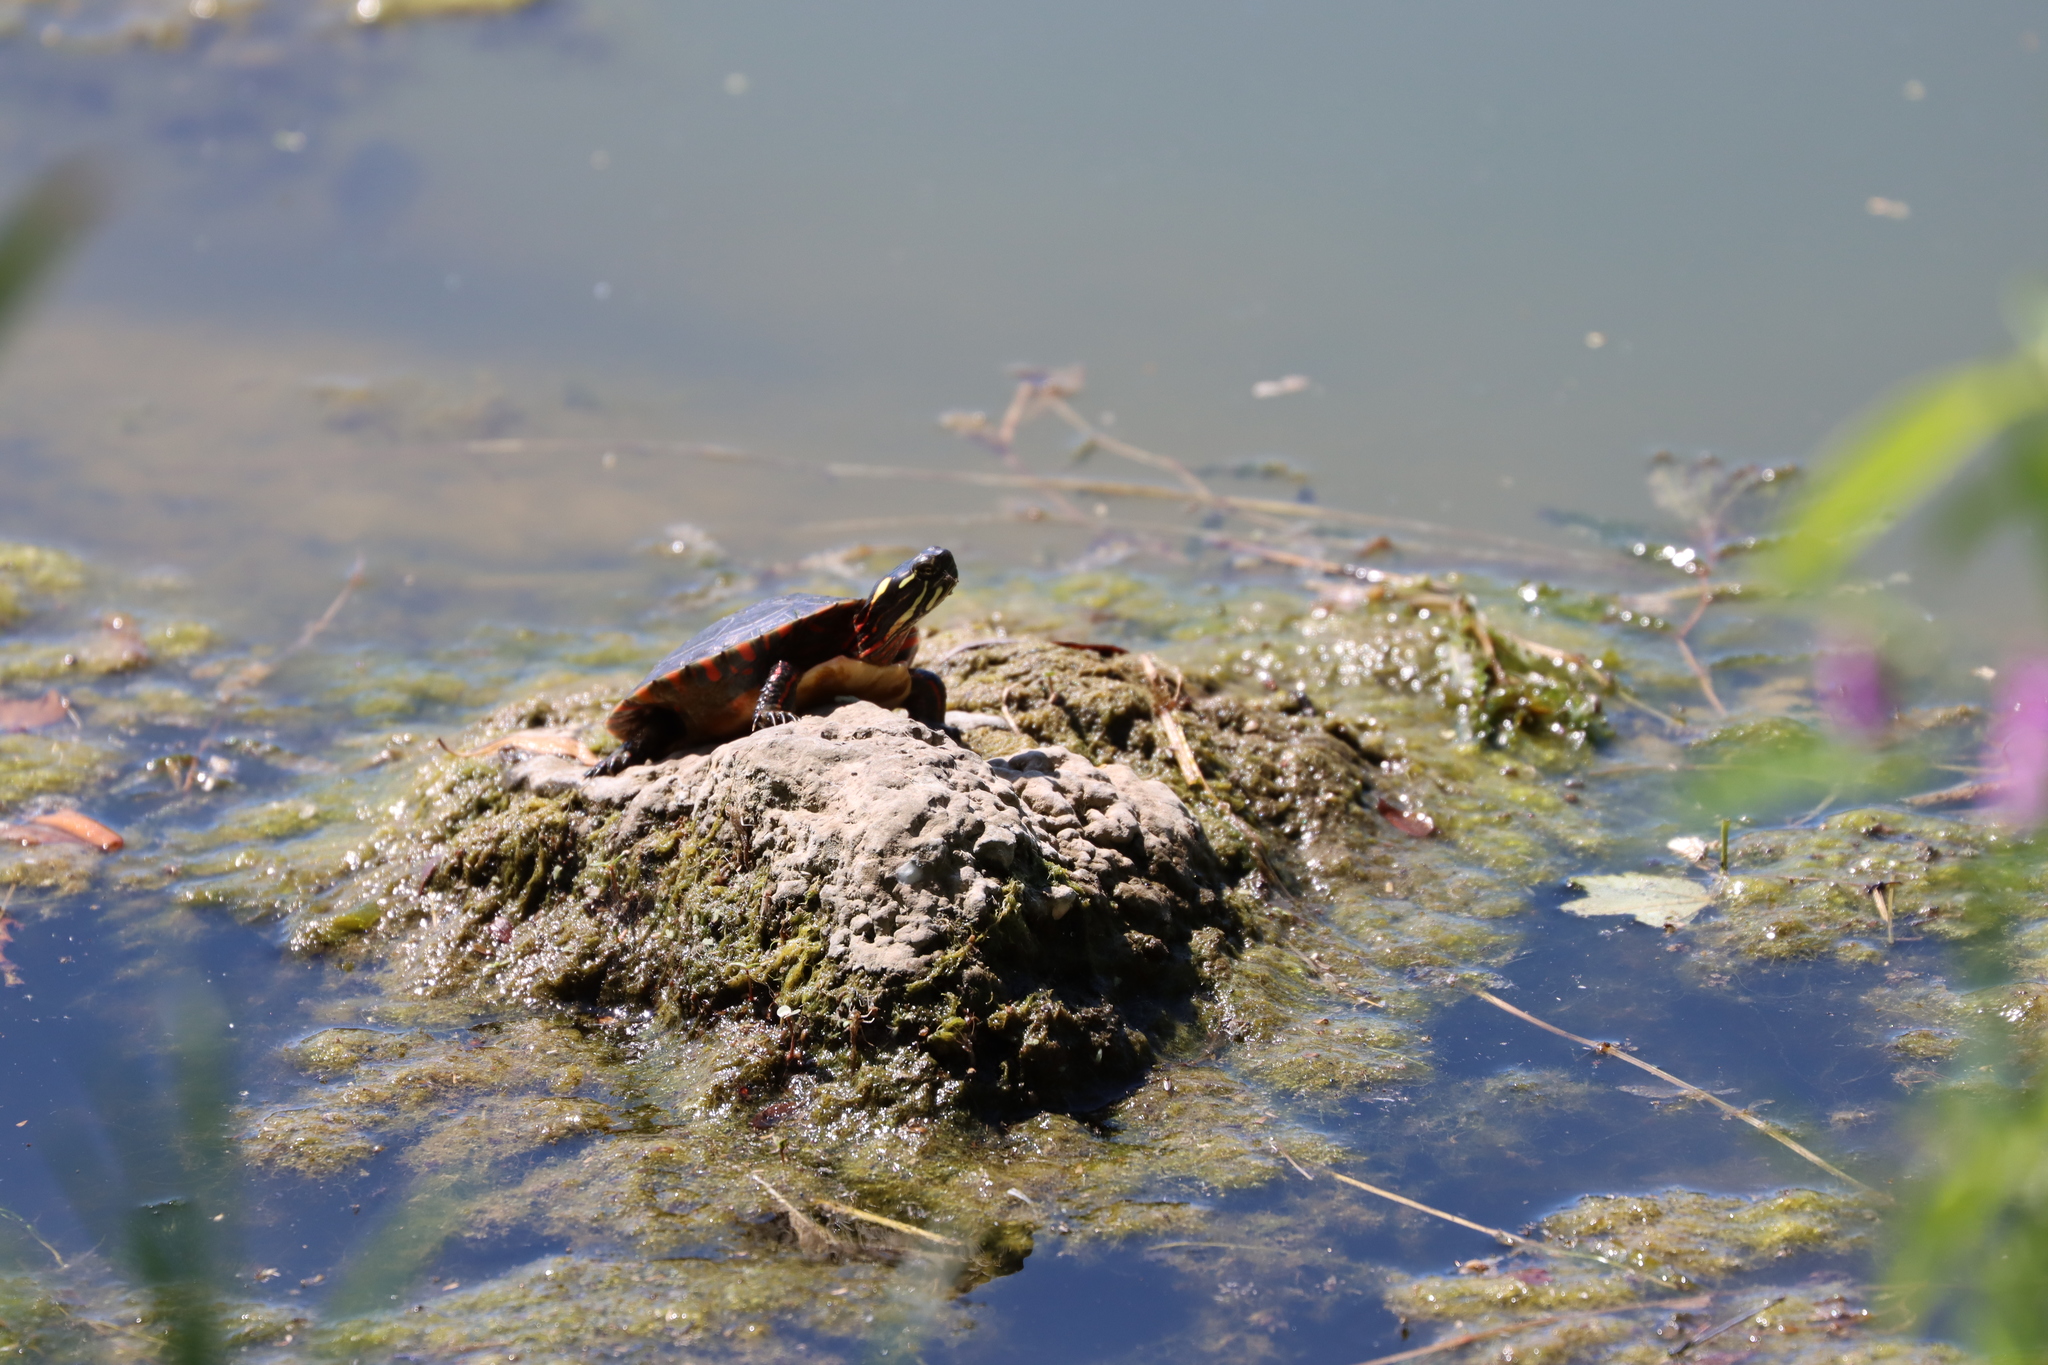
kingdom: Animalia
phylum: Chordata
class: Testudines
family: Emydidae
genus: Chrysemys
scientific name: Chrysemys picta
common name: Painted turtle
